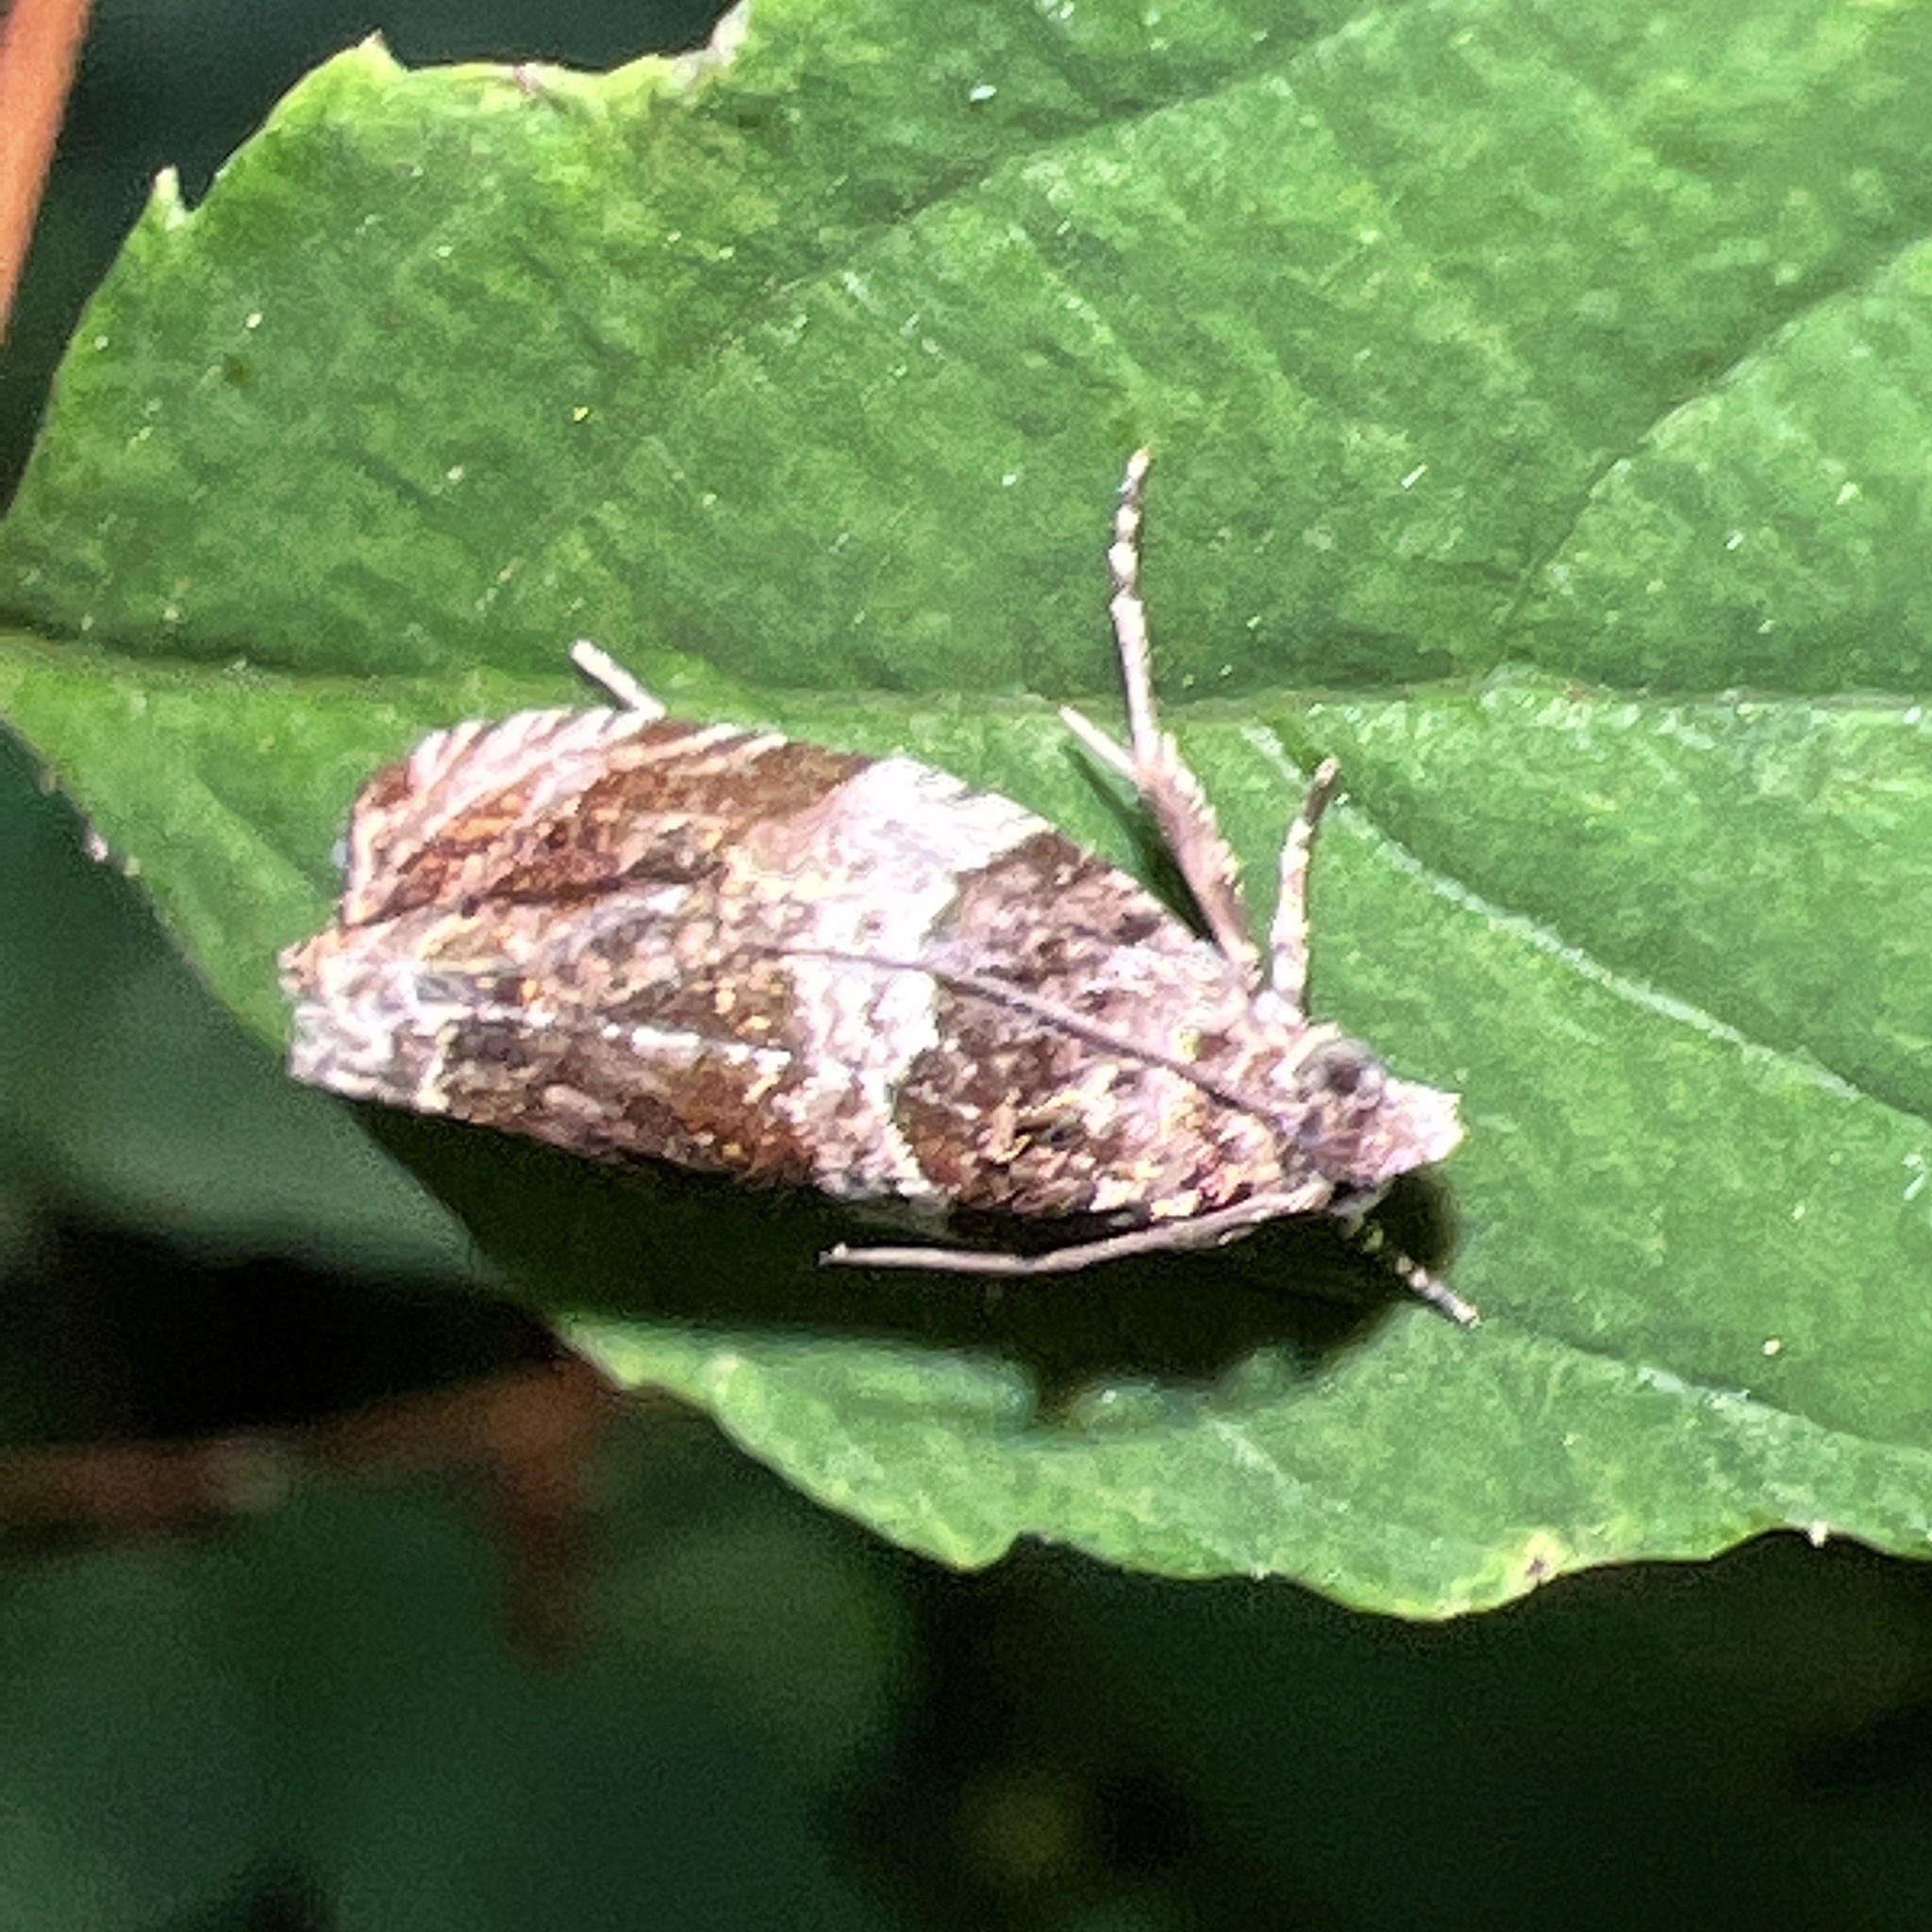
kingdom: Animalia
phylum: Arthropoda
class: Insecta
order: Lepidoptera
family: Tortricidae
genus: Olethreutes
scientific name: Olethreutes fasciatana
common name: Banded olethreutes moth
